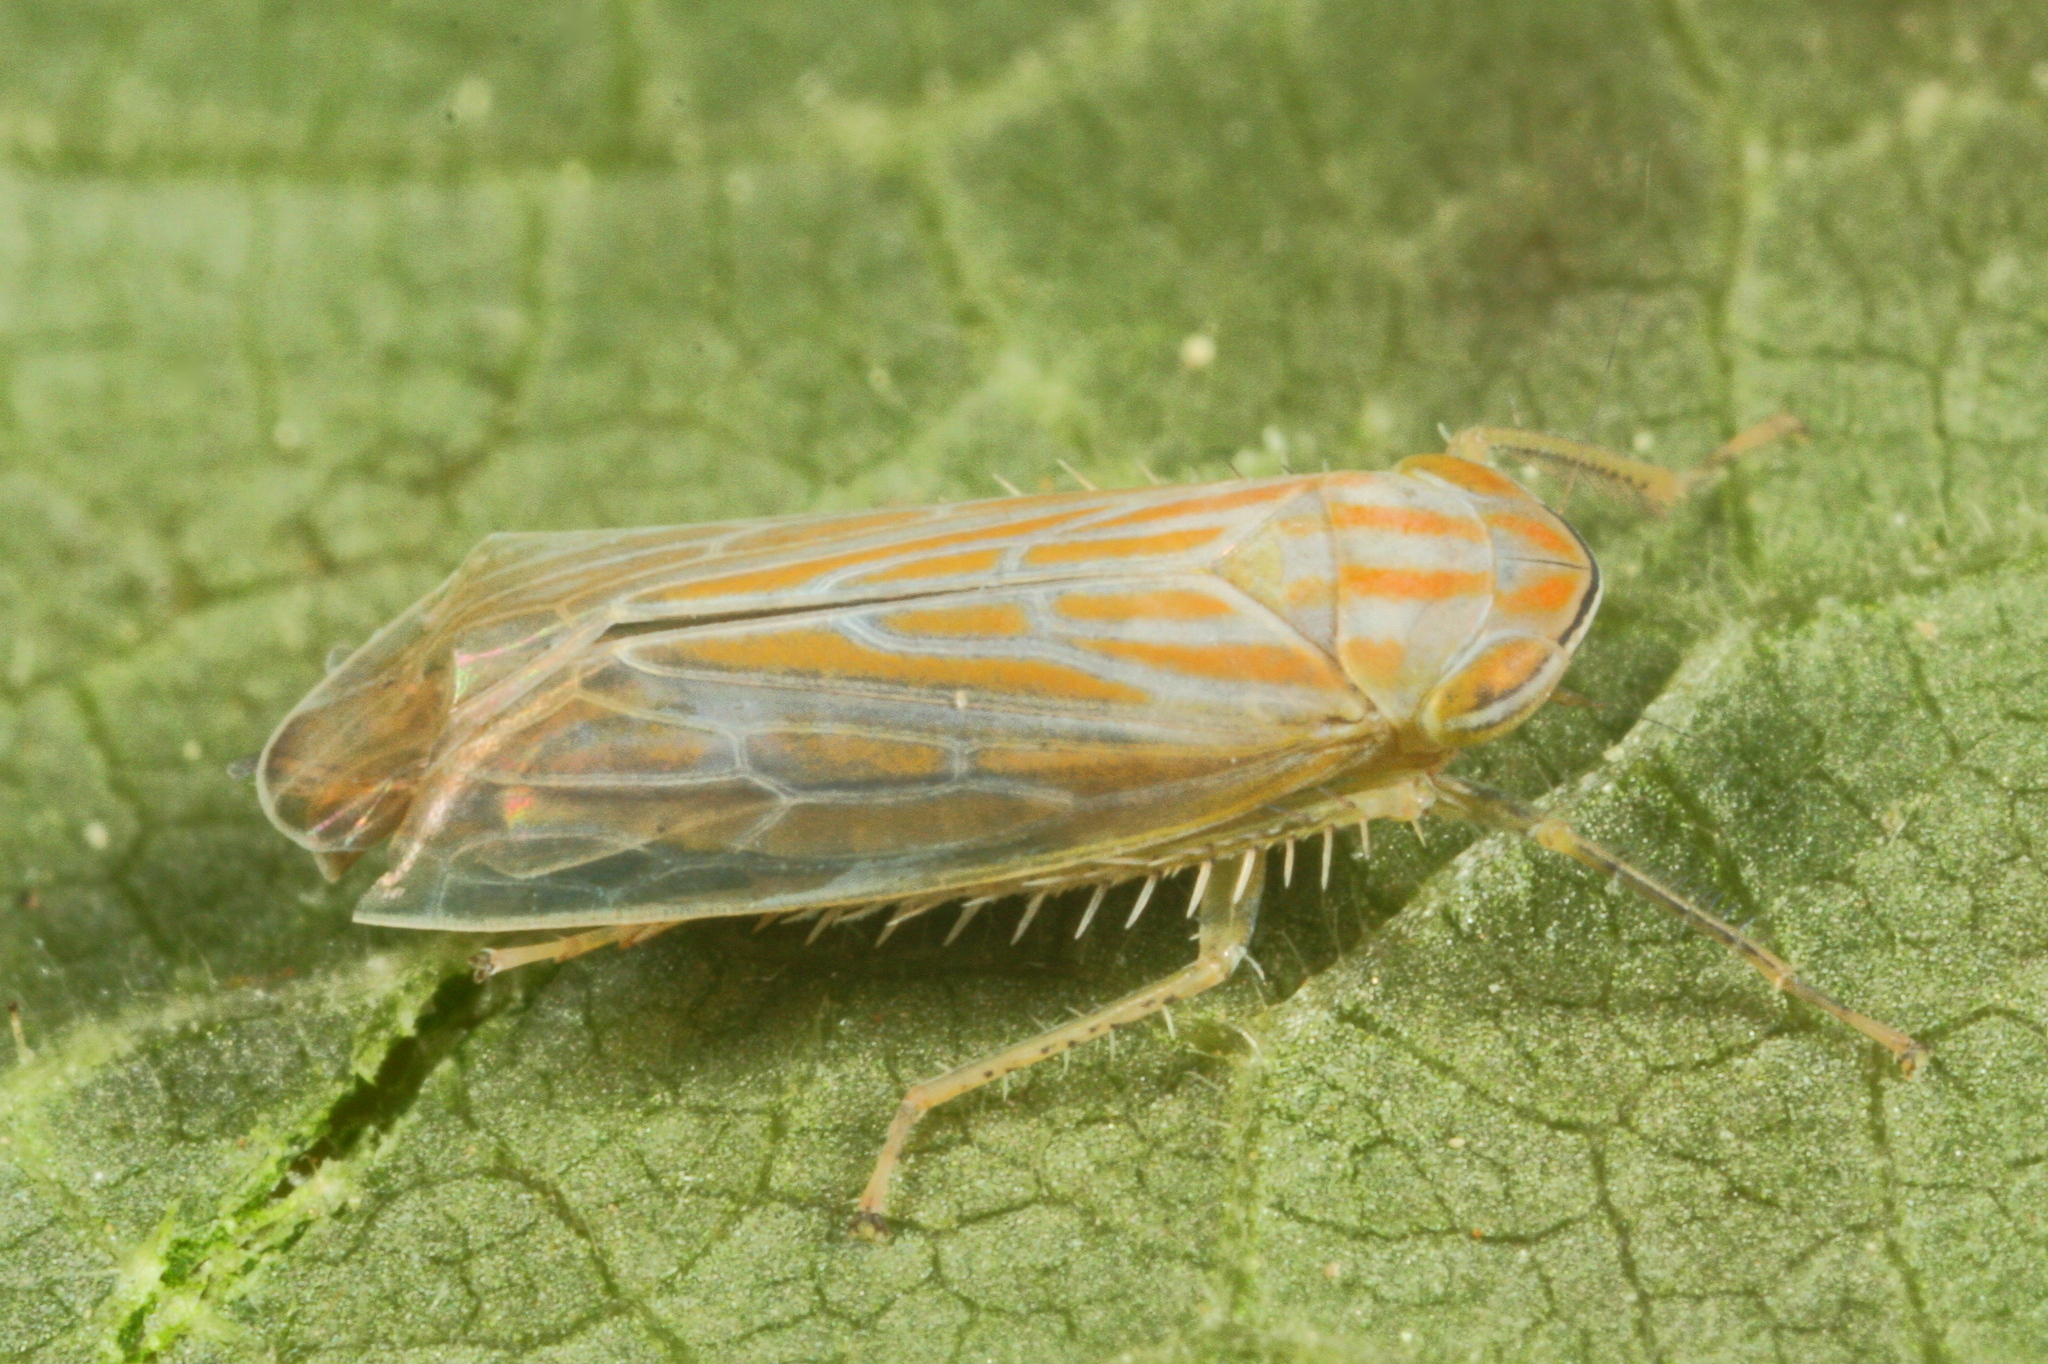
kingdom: Animalia
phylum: Arthropoda
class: Insecta
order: Hemiptera
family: Cicadellidae
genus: Calamotettix
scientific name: Calamotettix taeniatus
